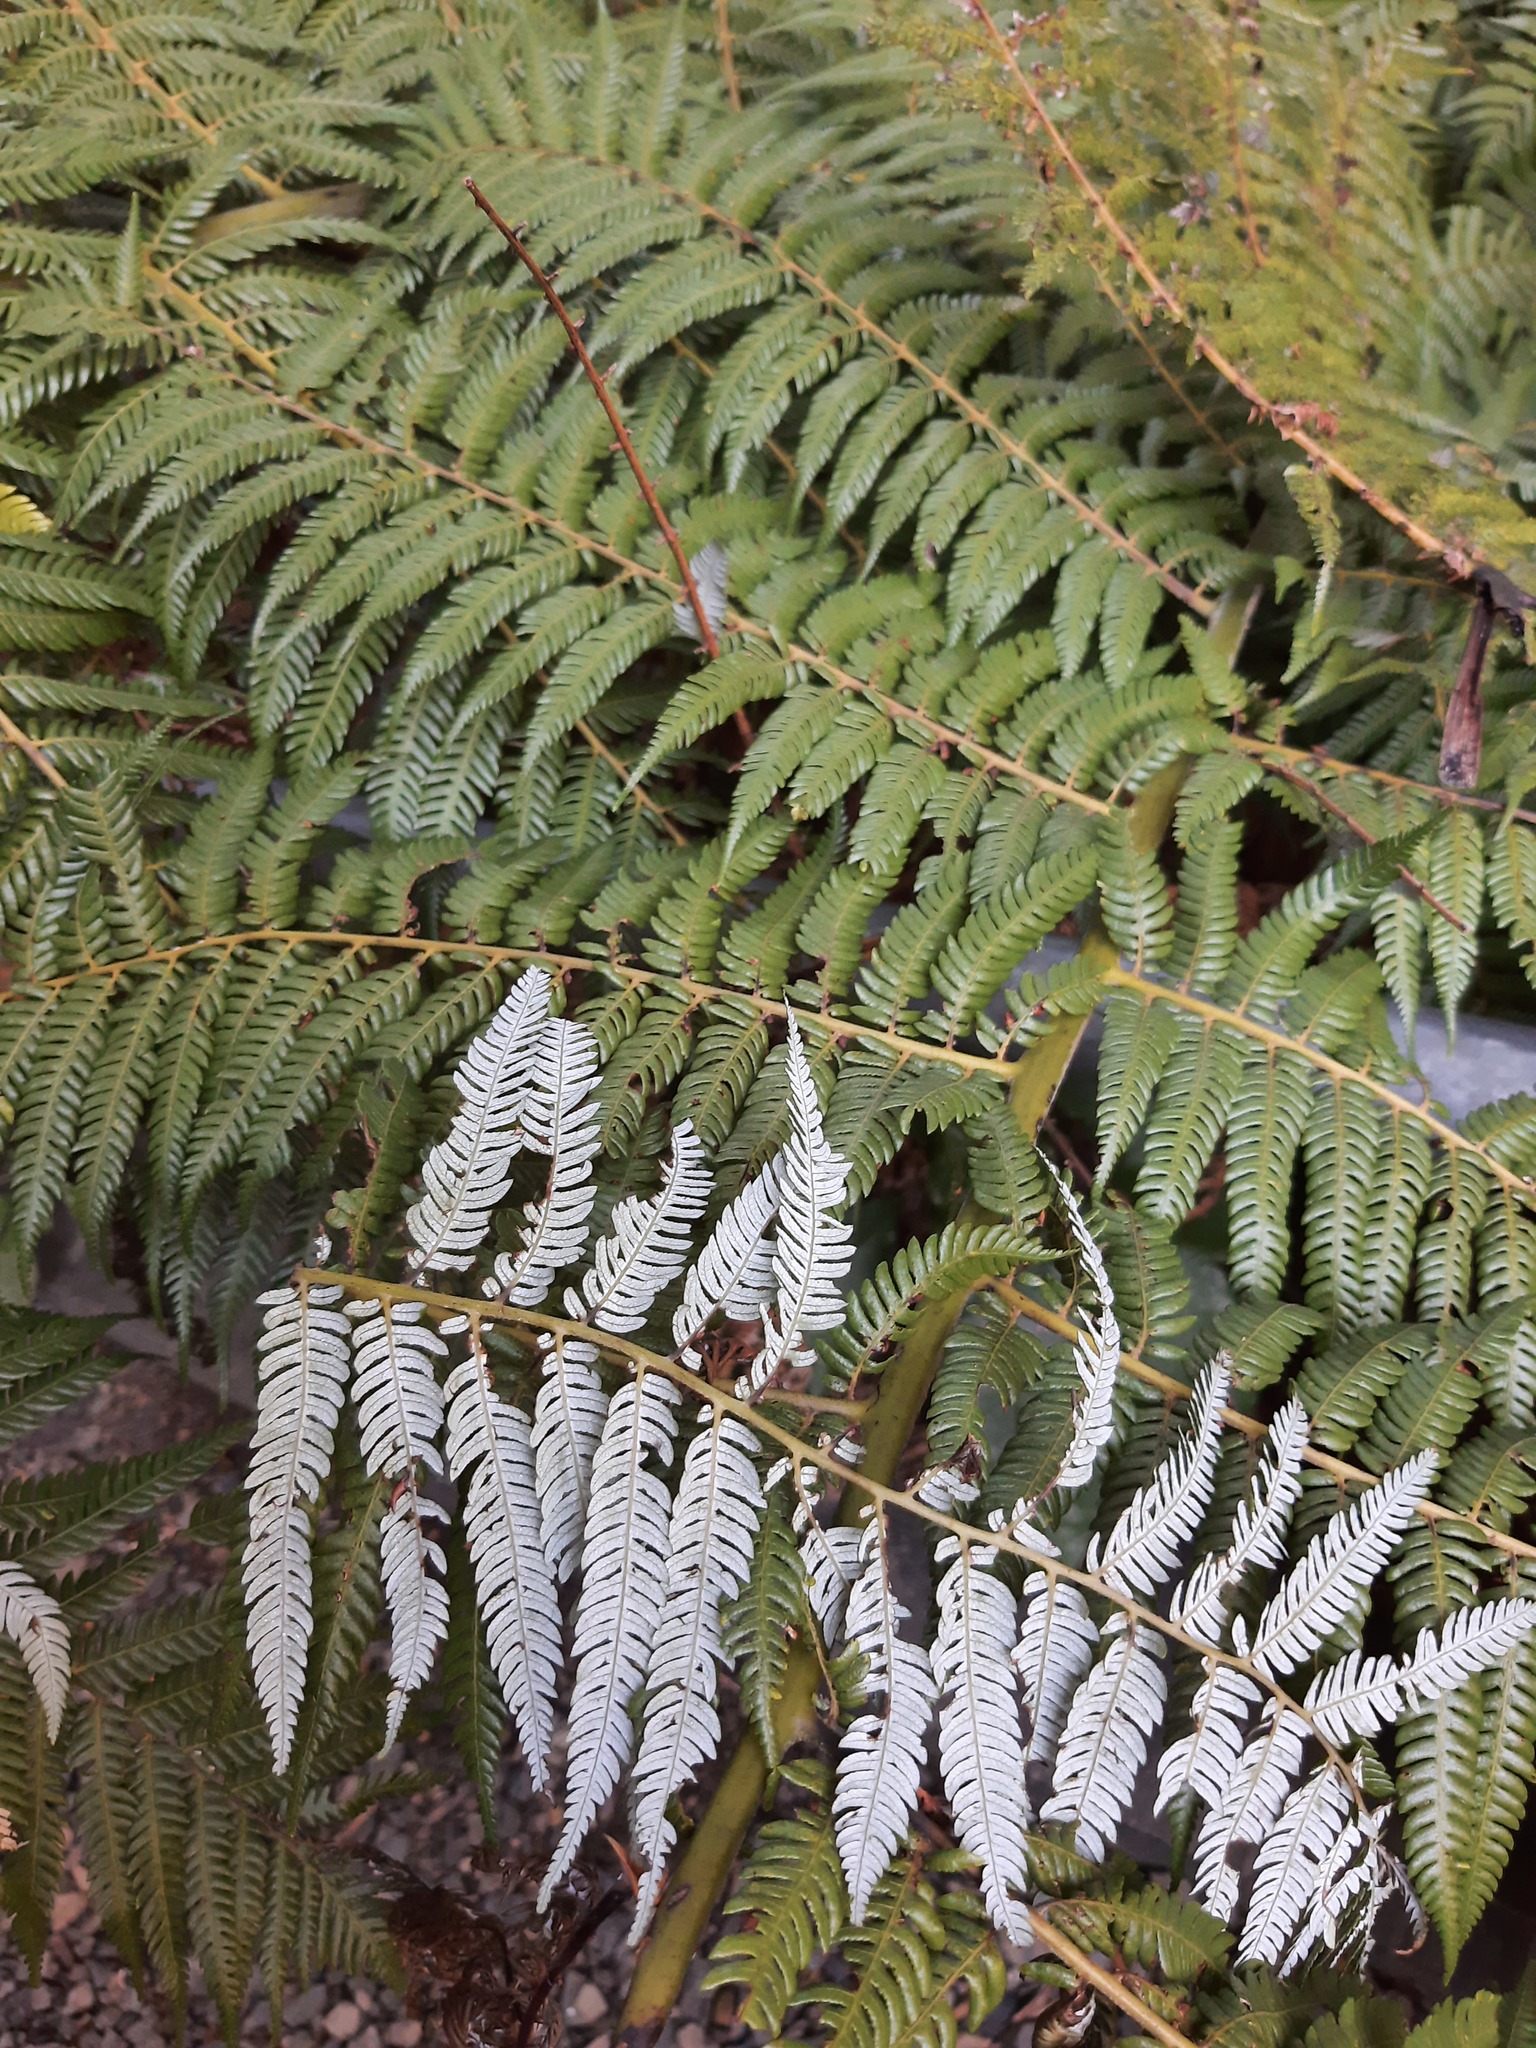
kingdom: Plantae
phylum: Tracheophyta
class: Polypodiopsida
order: Cyatheales
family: Cyatheaceae
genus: Alsophila
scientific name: Alsophila dealbata
